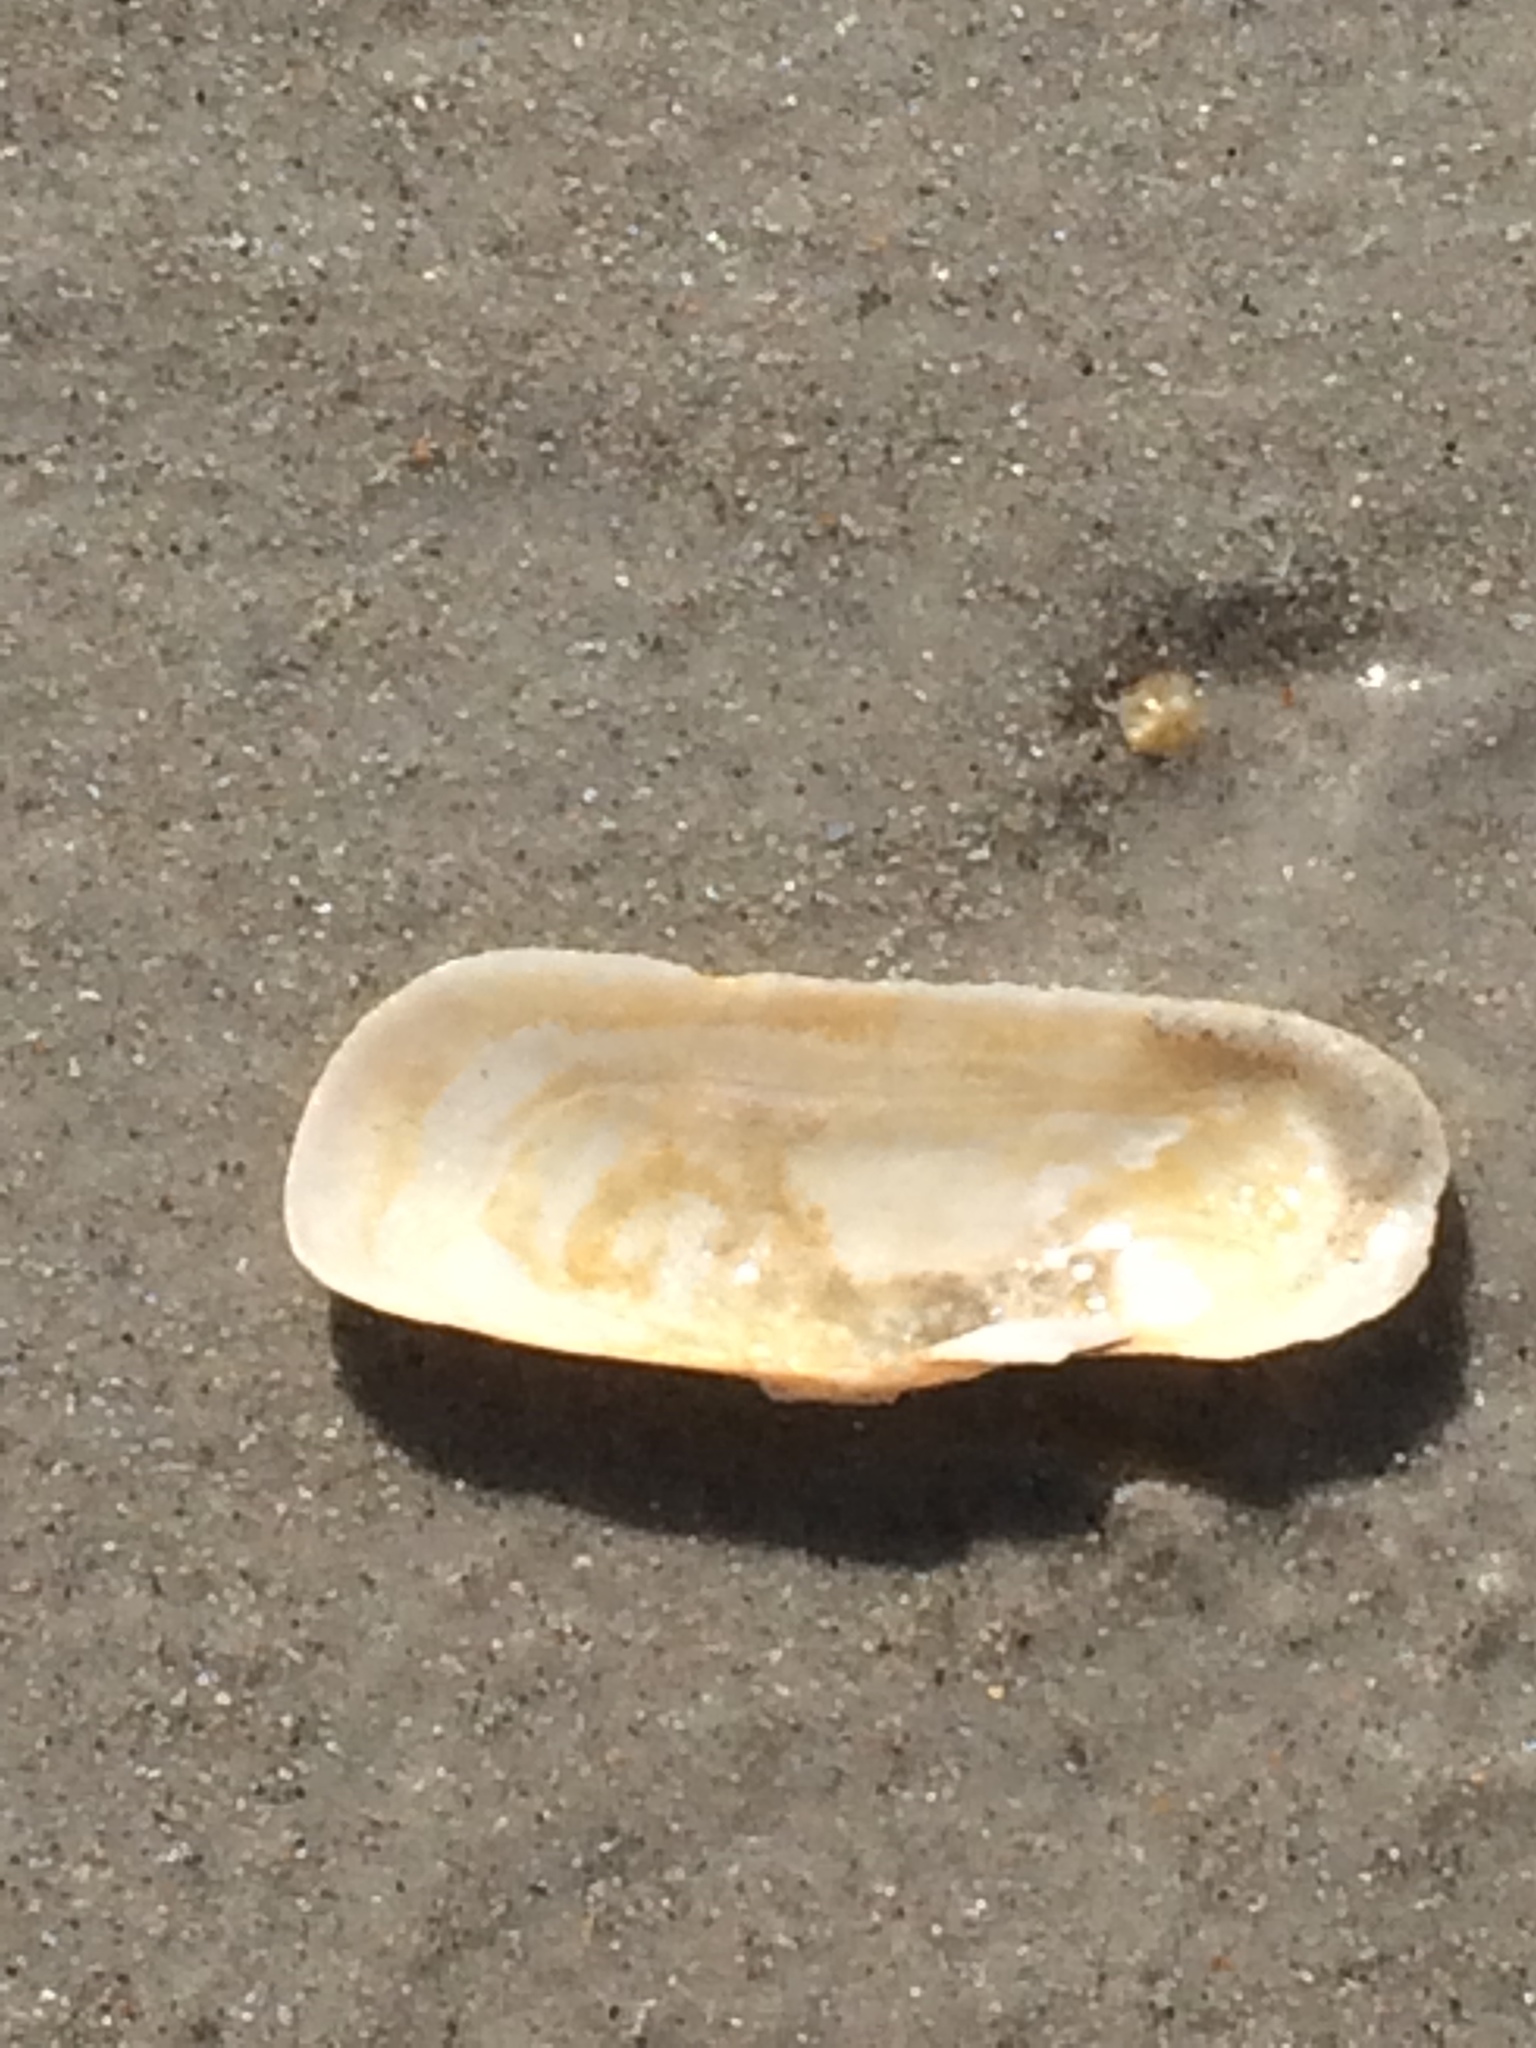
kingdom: Animalia
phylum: Mollusca
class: Bivalvia
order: Cardiida
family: Solecurtidae
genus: Tagelus
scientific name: Tagelus plebeius
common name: Stout tagelus
